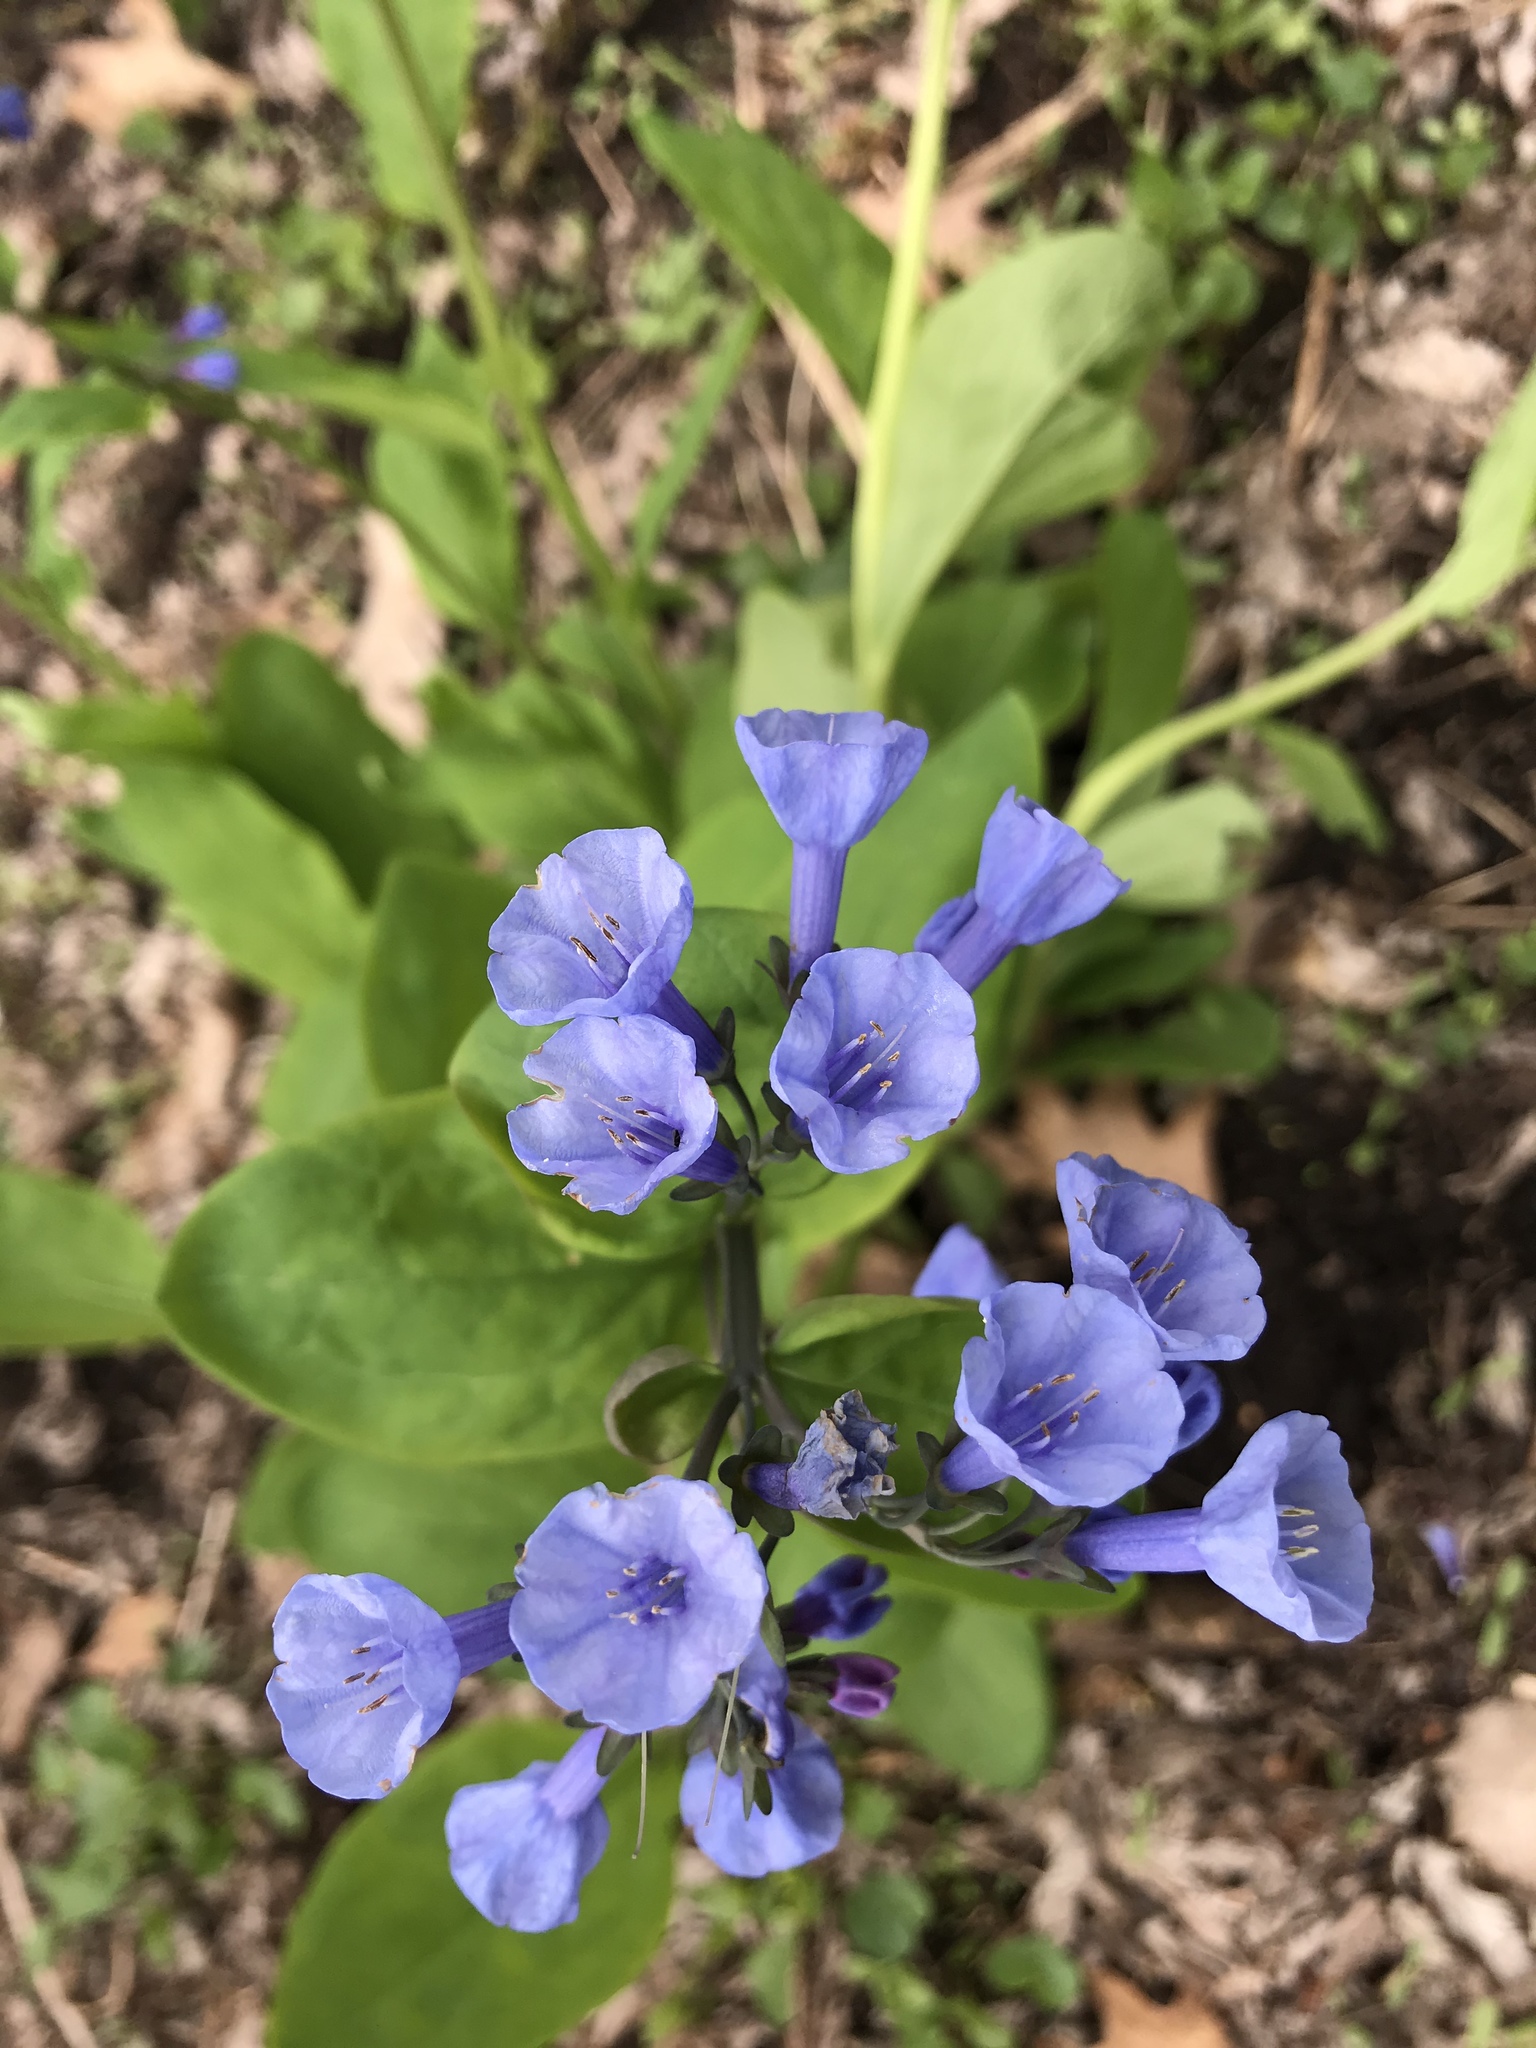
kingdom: Plantae
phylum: Tracheophyta
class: Magnoliopsida
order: Boraginales
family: Boraginaceae
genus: Mertensia
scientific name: Mertensia virginica
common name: Virginia bluebells
